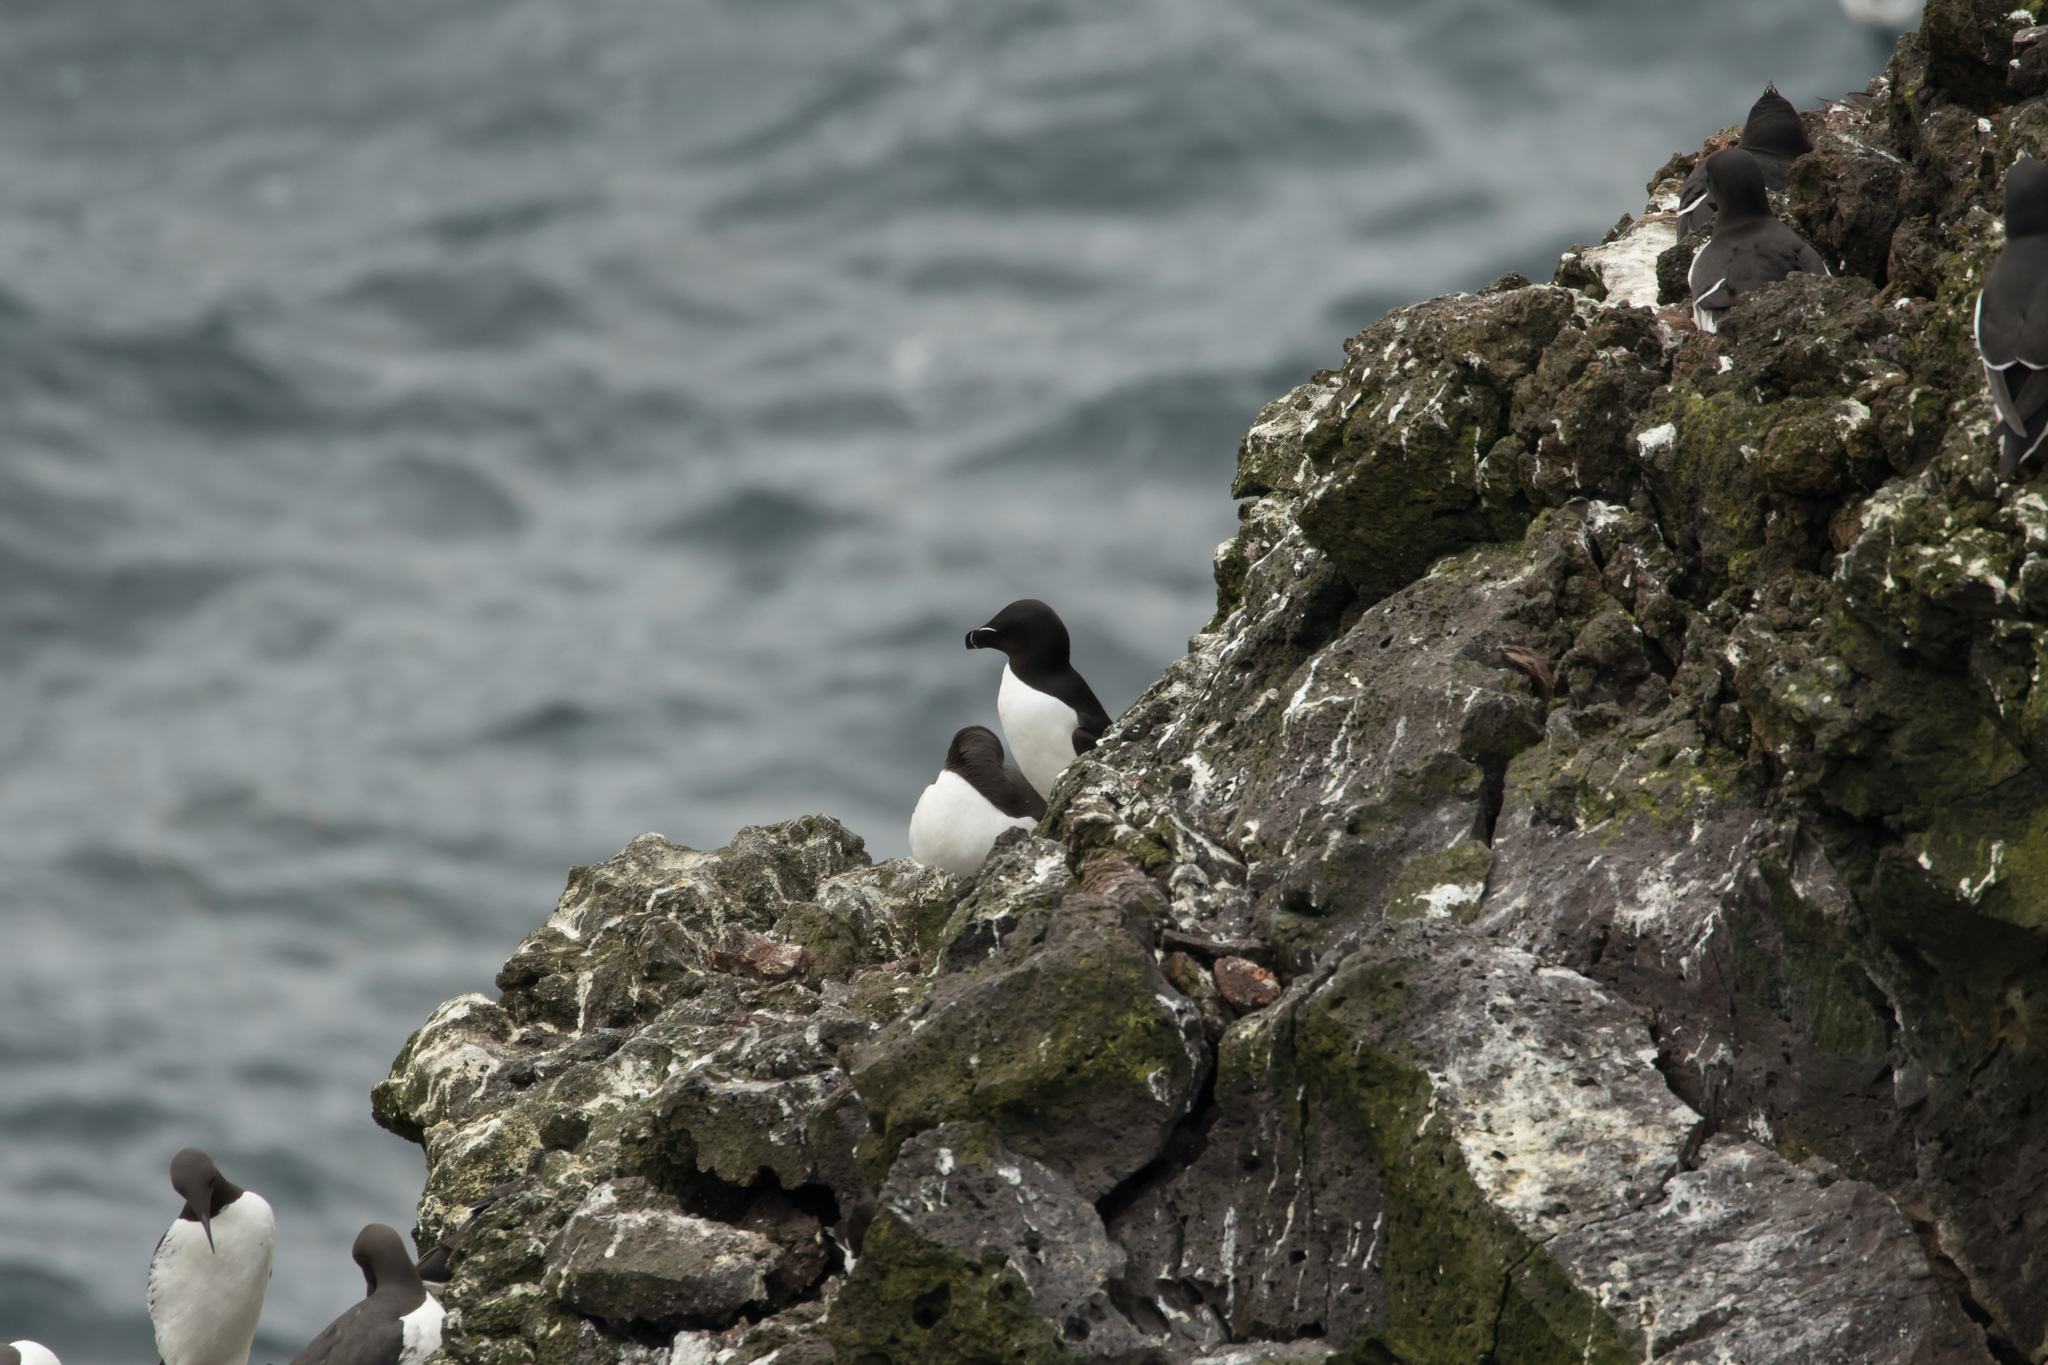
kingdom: Animalia
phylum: Chordata
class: Aves
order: Charadriiformes
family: Alcidae
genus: Alca
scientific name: Alca torda
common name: Razorbill
